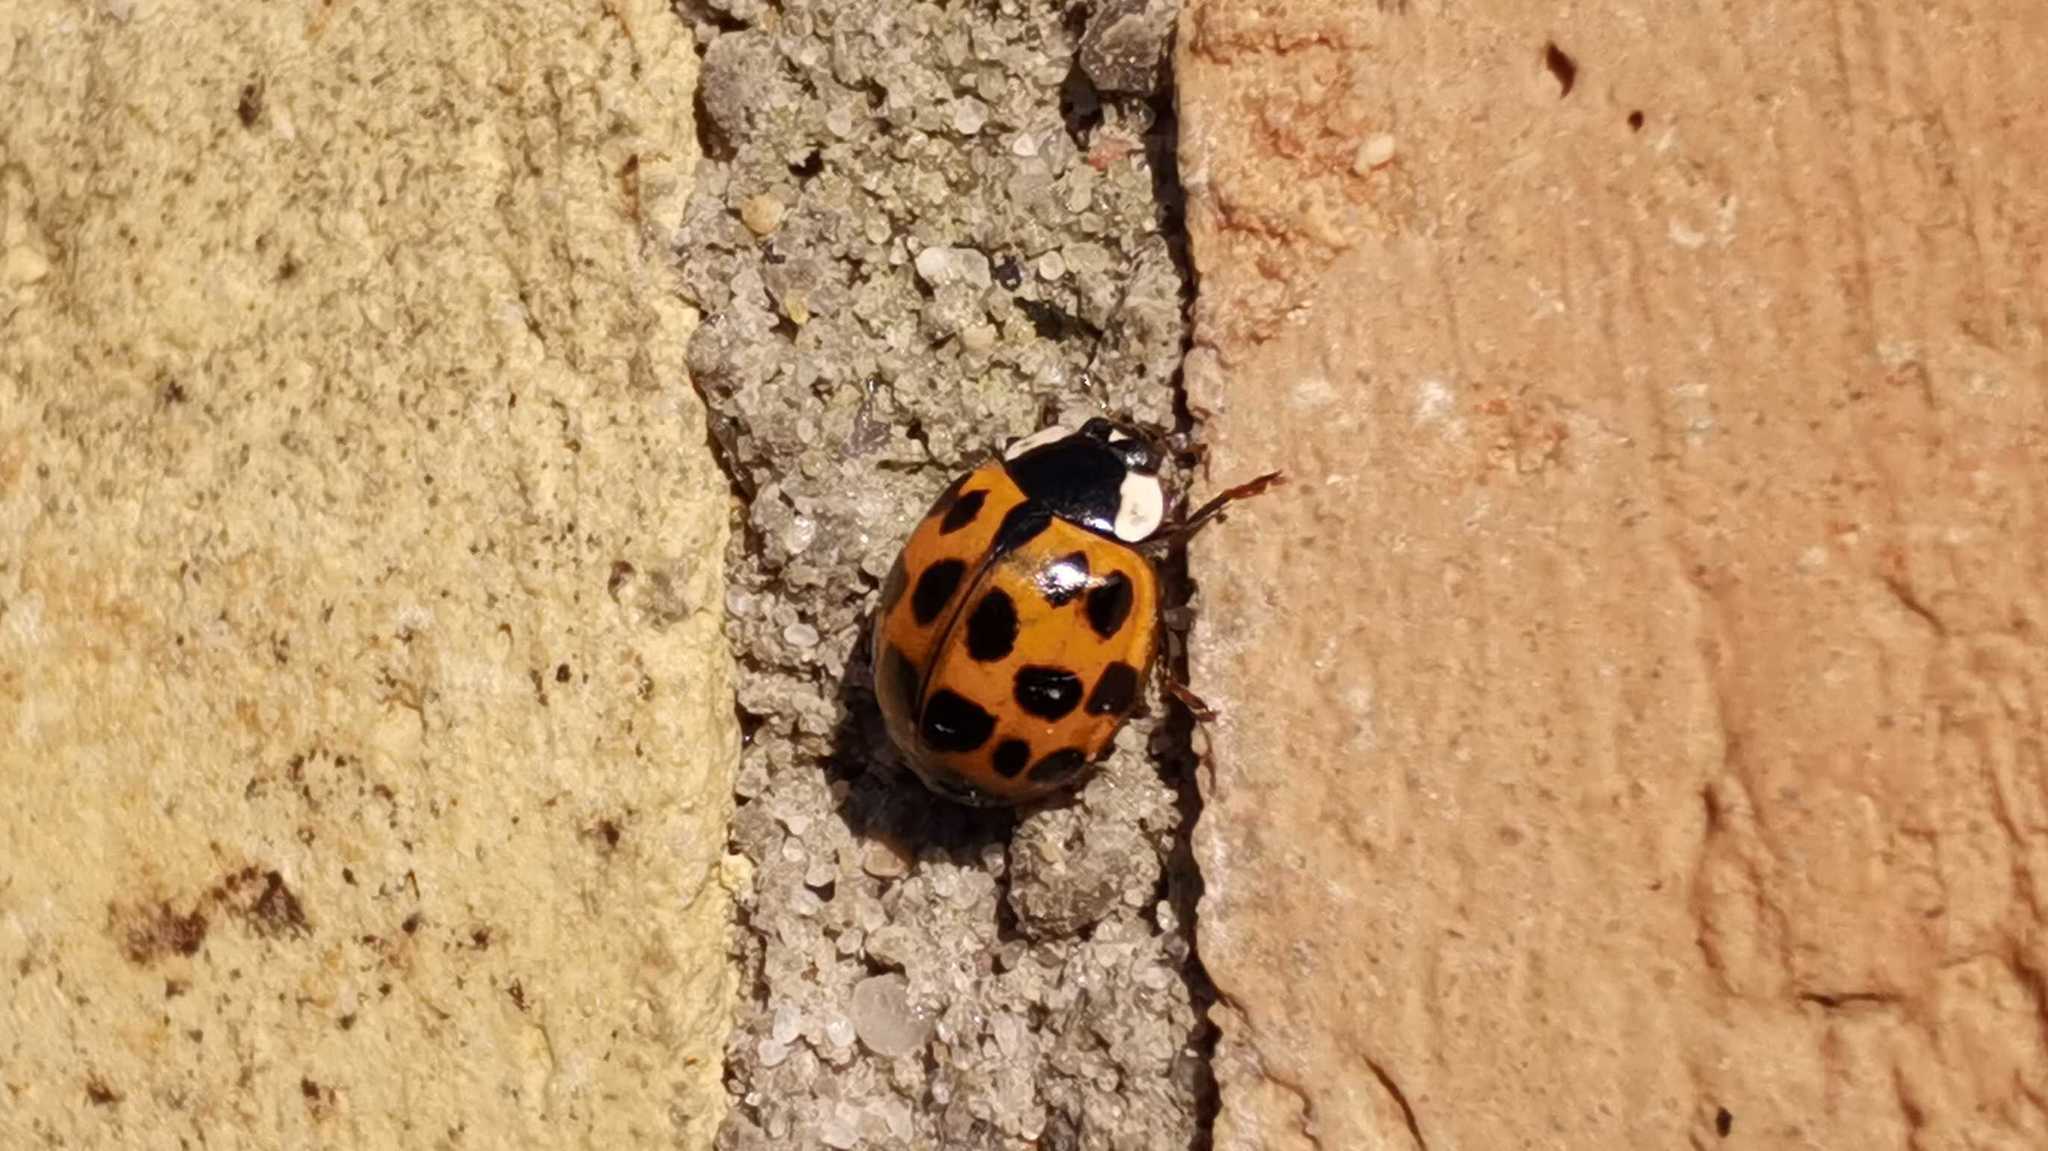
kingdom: Animalia
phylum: Arthropoda
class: Insecta
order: Coleoptera
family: Coccinellidae
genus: Harmonia
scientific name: Harmonia axyridis
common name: Harlequin ladybird
